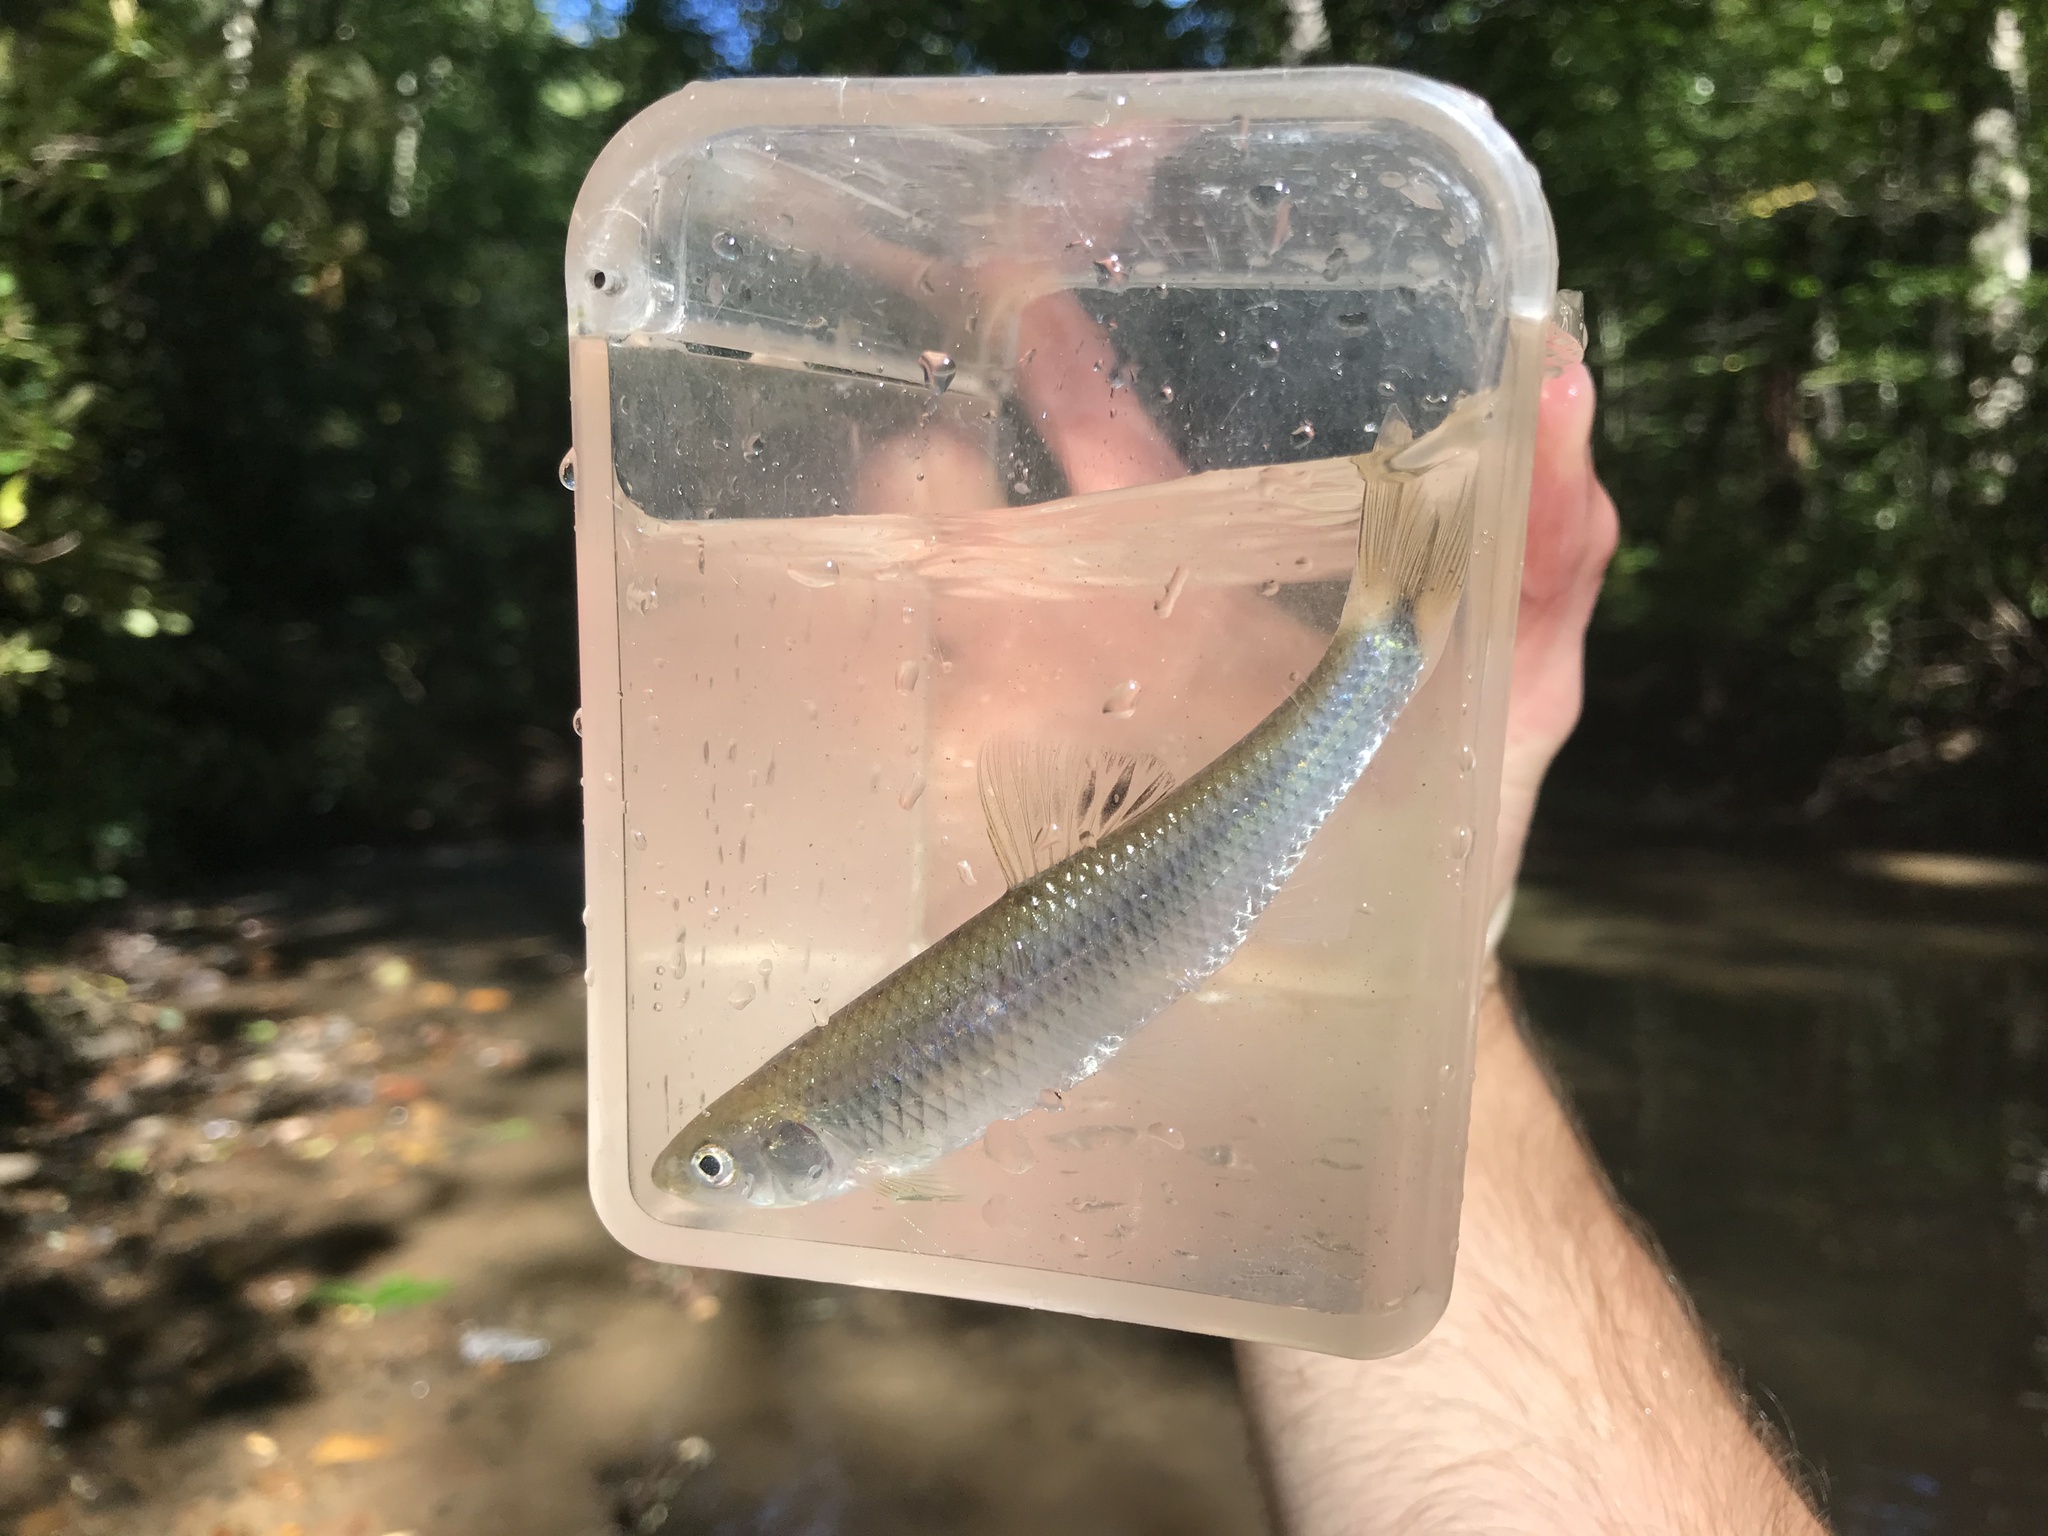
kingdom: Animalia
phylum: Chordata
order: Cypriniformes
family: Cyprinidae
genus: Cyprinella
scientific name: Cyprinella galactura
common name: Whitetail shiner
